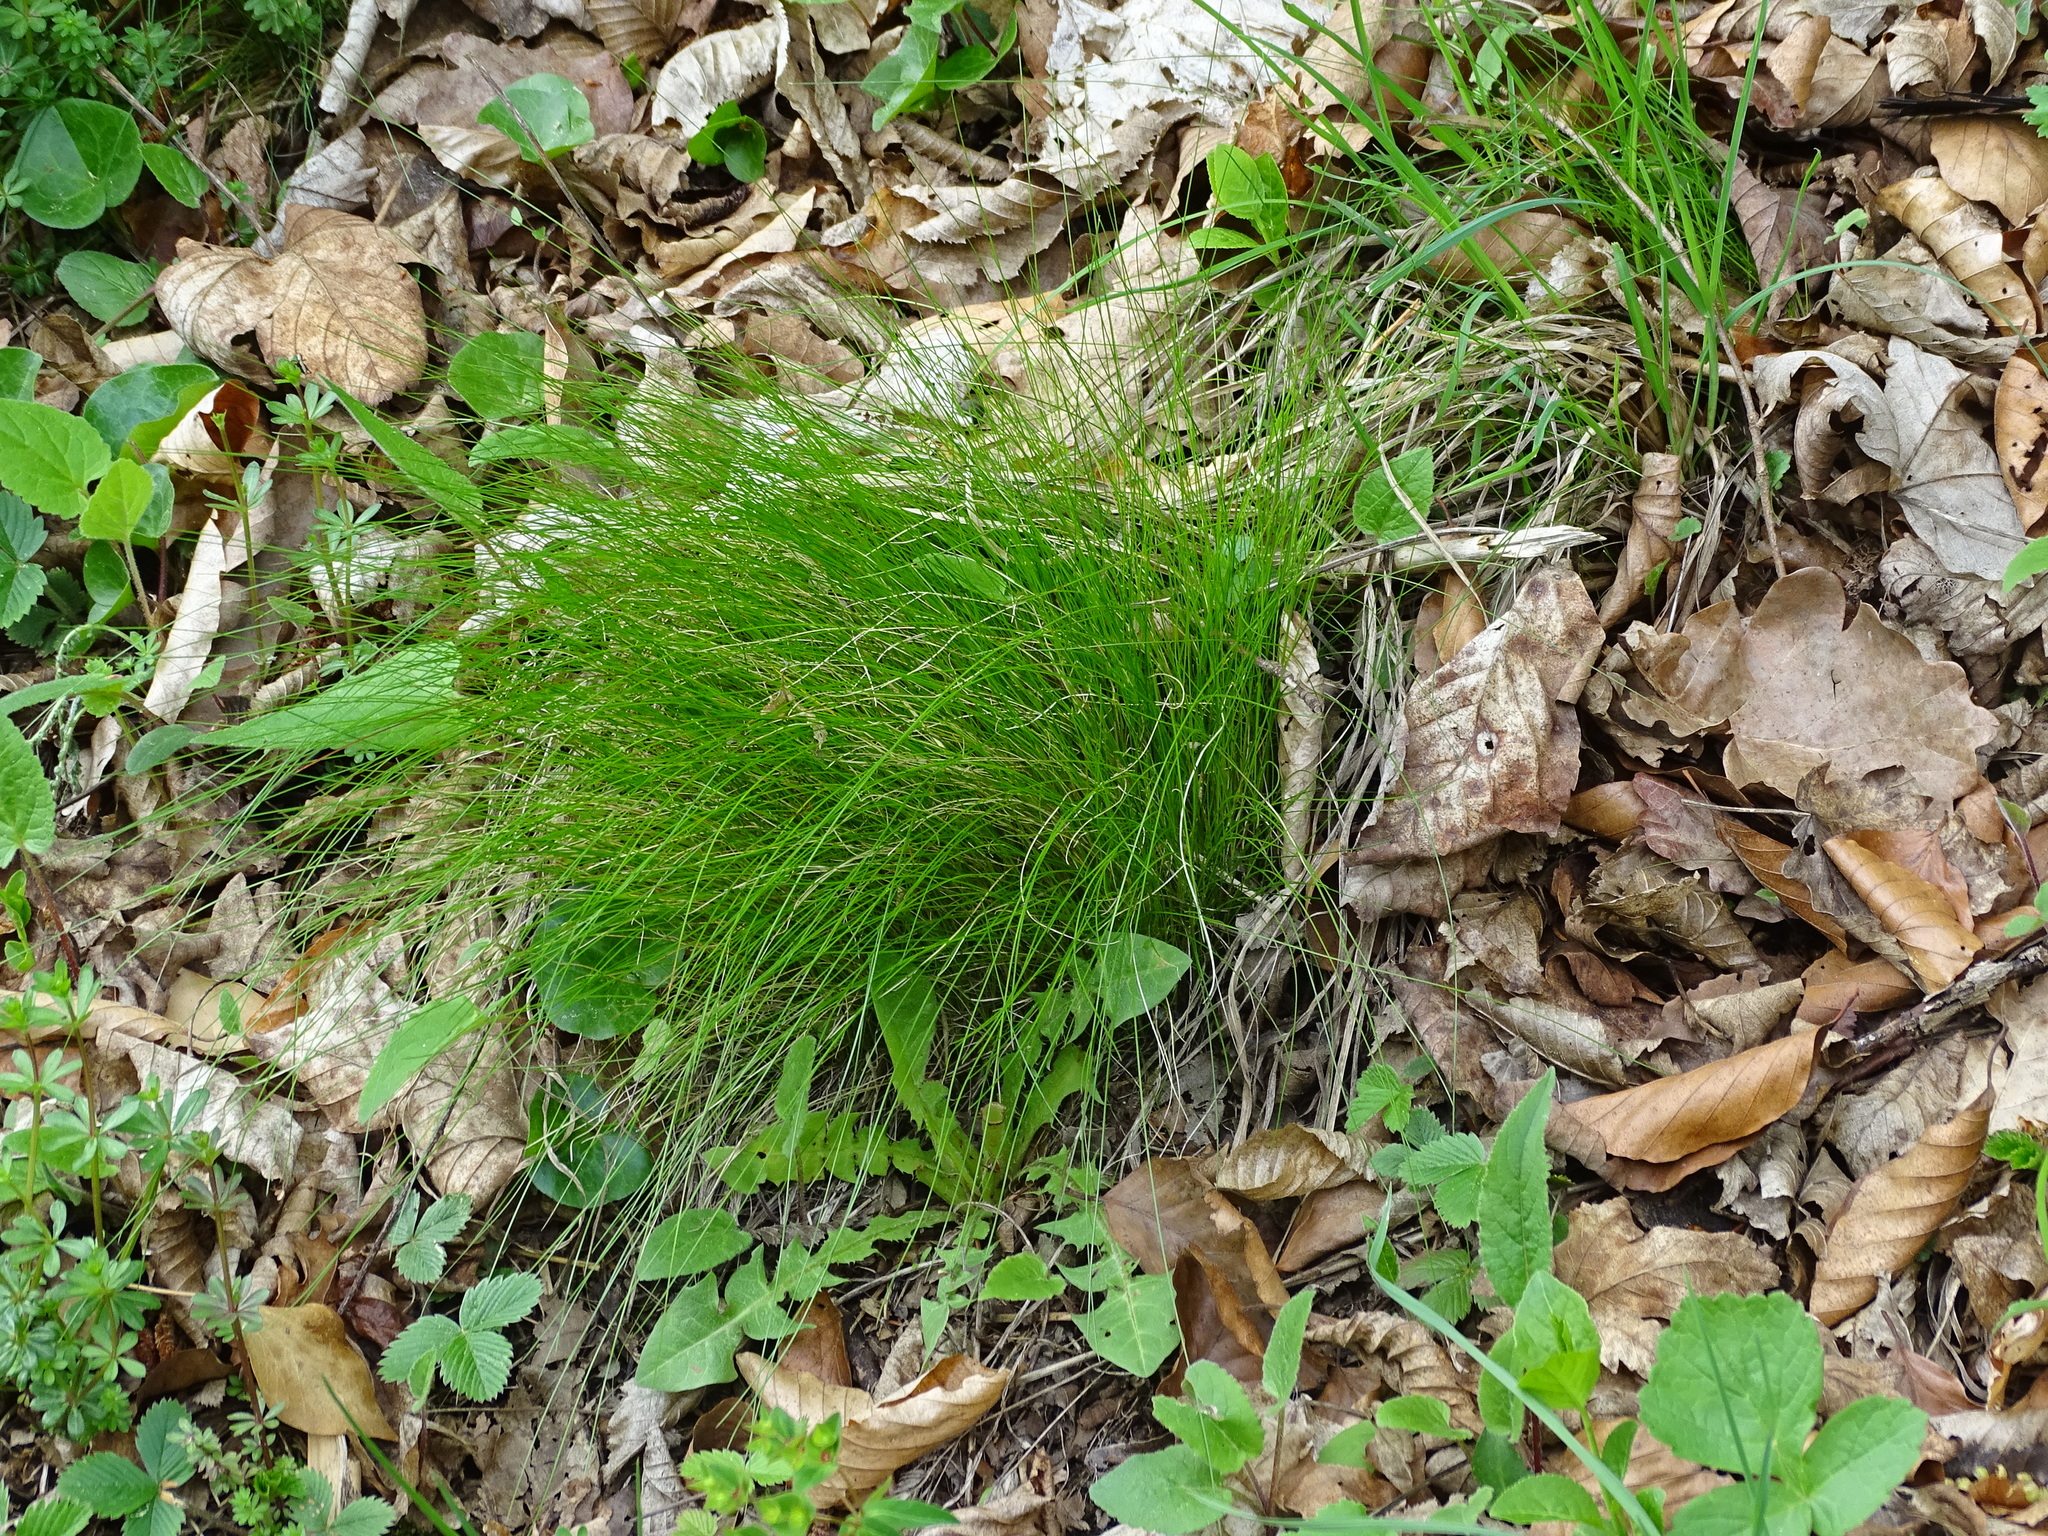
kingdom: Plantae
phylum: Tracheophyta
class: Liliopsida
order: Poales
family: Poaceae
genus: Festuca
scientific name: Festuca heterophylla
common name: Various-leaved fescue
